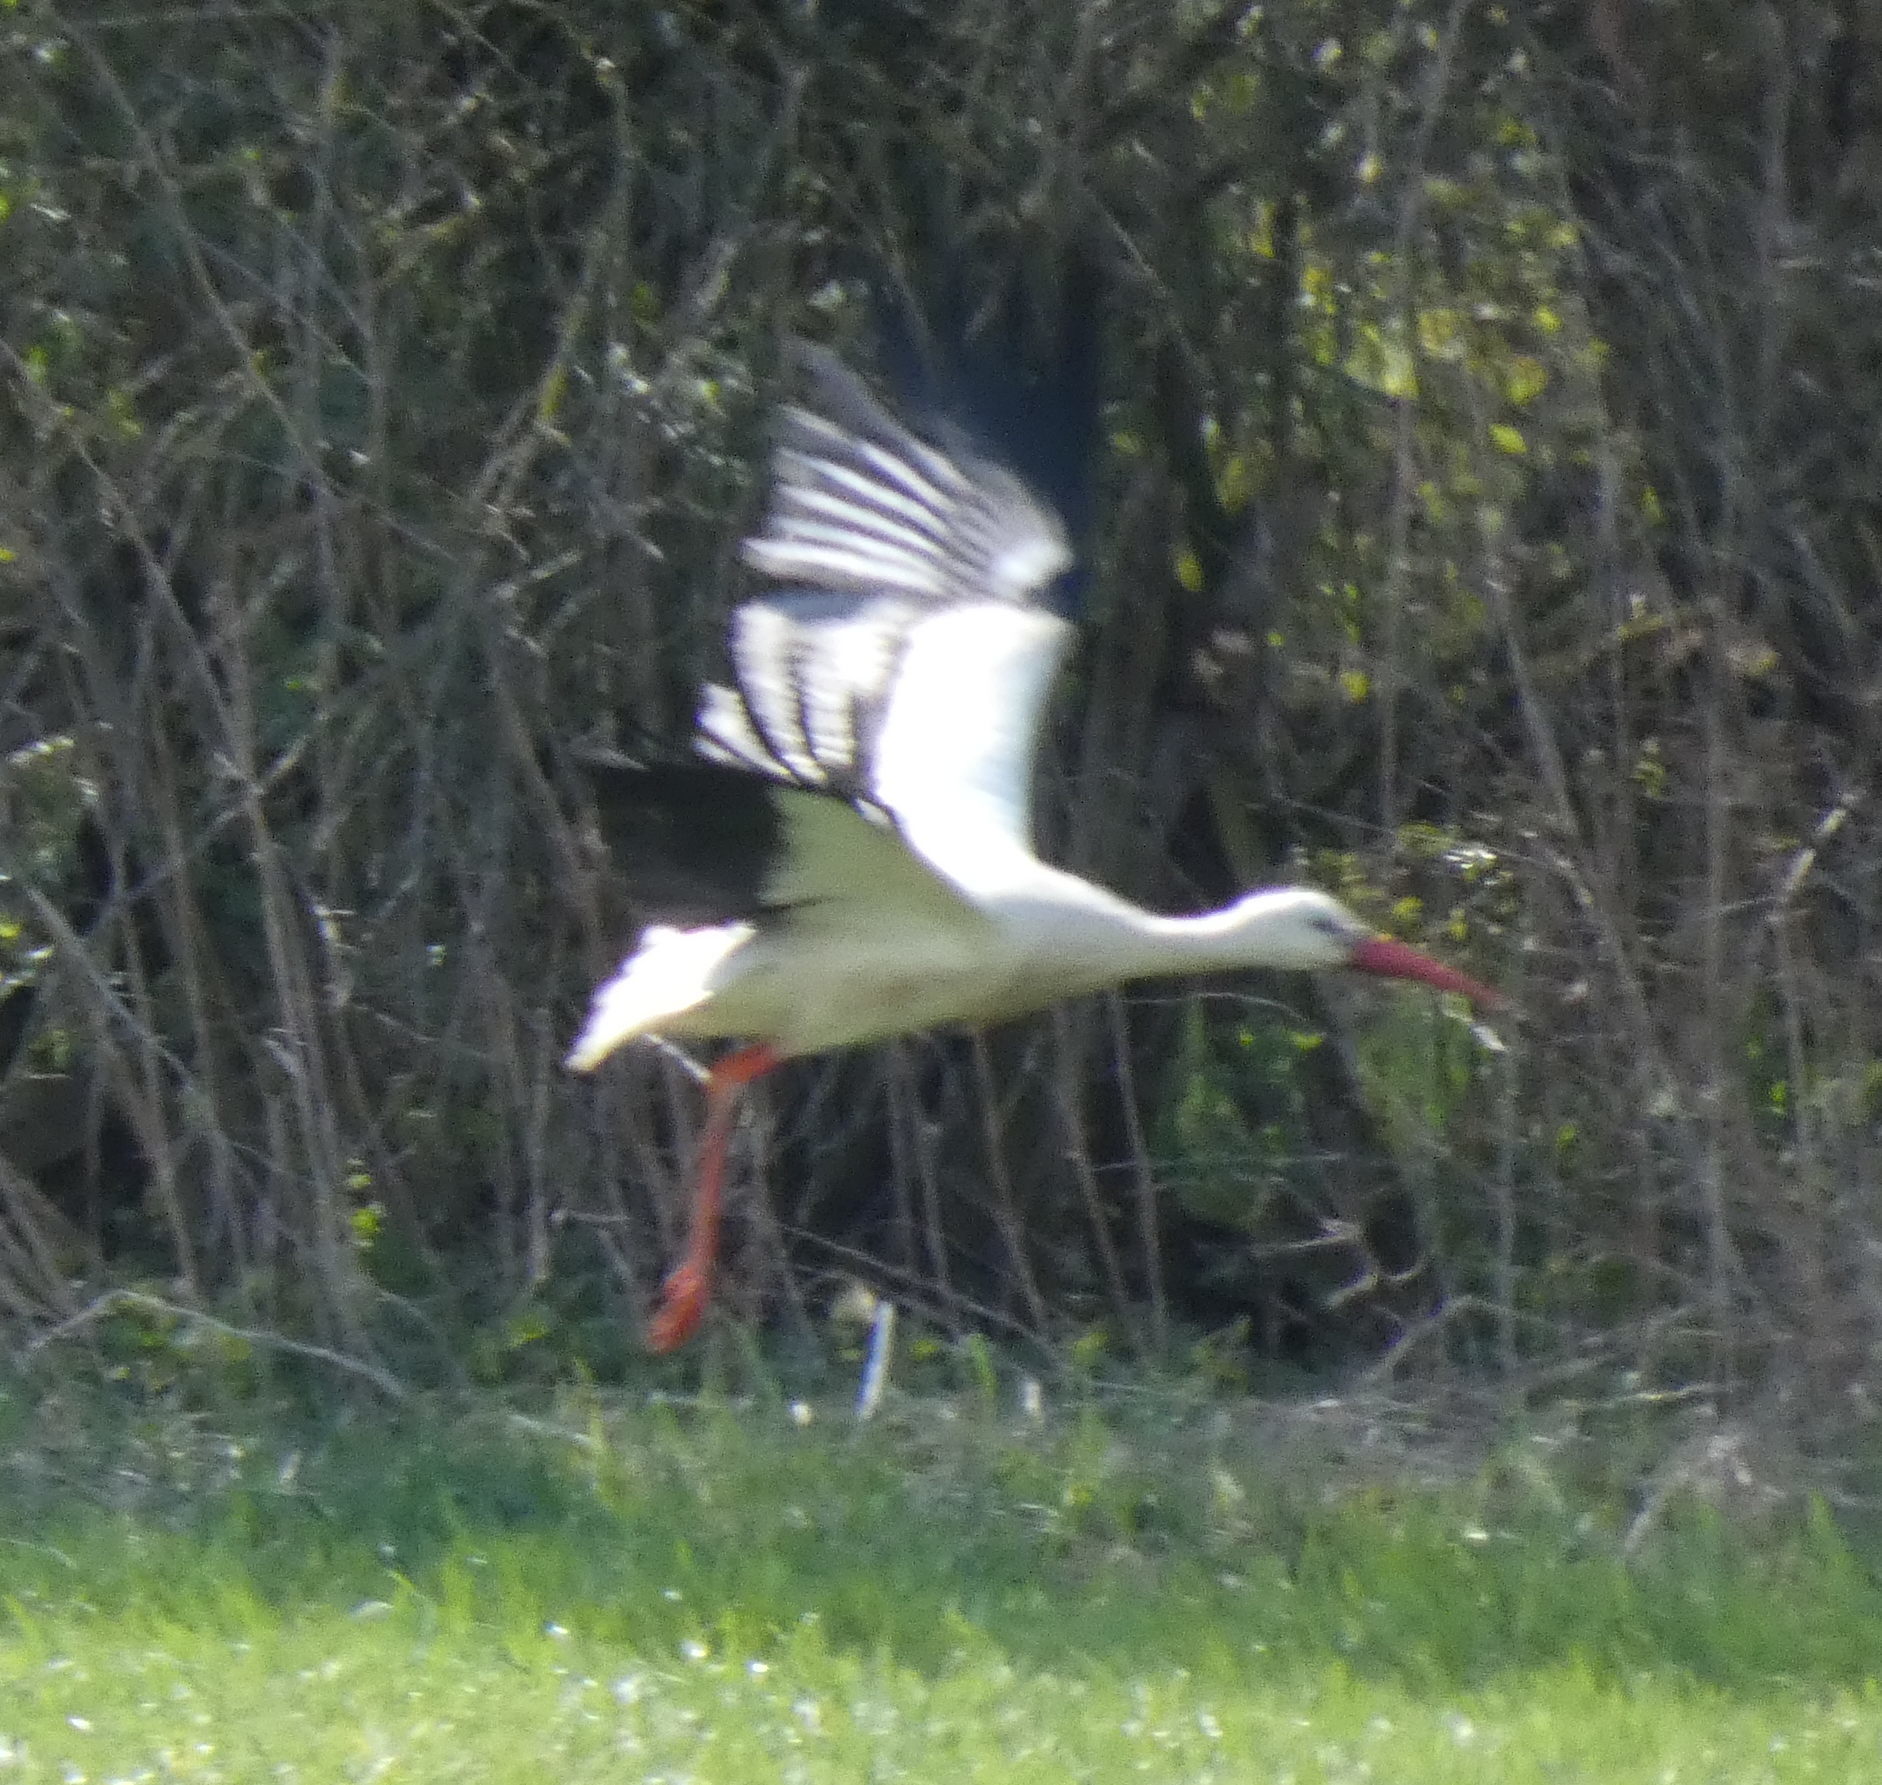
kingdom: Animalia
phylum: Chordata
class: Aves
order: Ciconiiformes
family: Ciconiidae
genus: Ciconia
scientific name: Ciconia ciconia
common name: White stork
